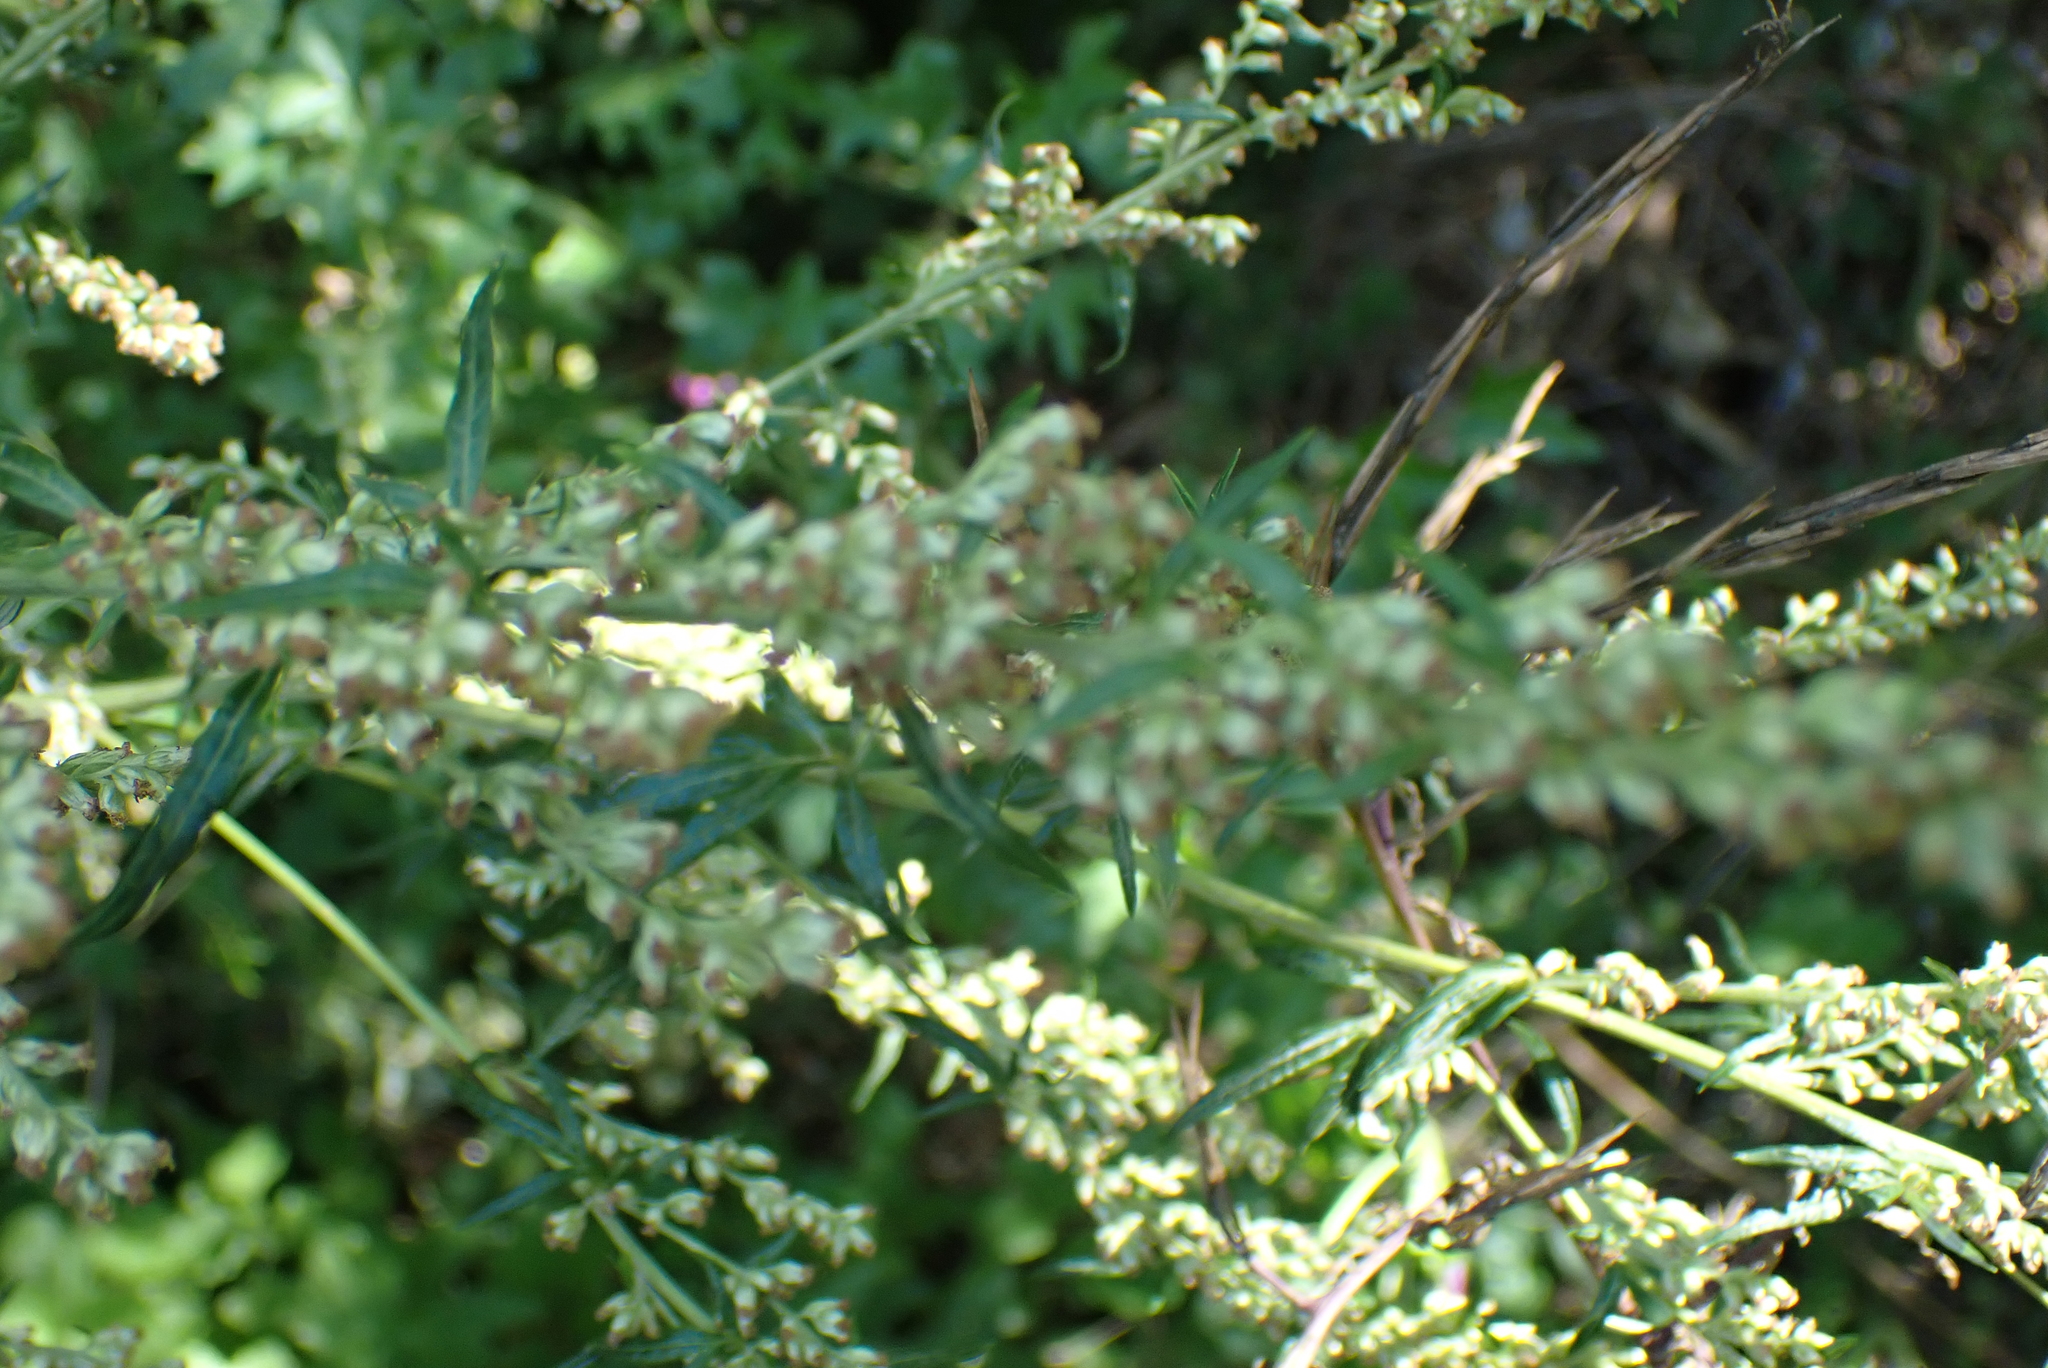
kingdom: Plantae
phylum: Tracheophyta
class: Magnoliopsida
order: Asterales
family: Asteraceae
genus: Artemisia
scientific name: Artemisia vulgaris
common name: Mugwort
